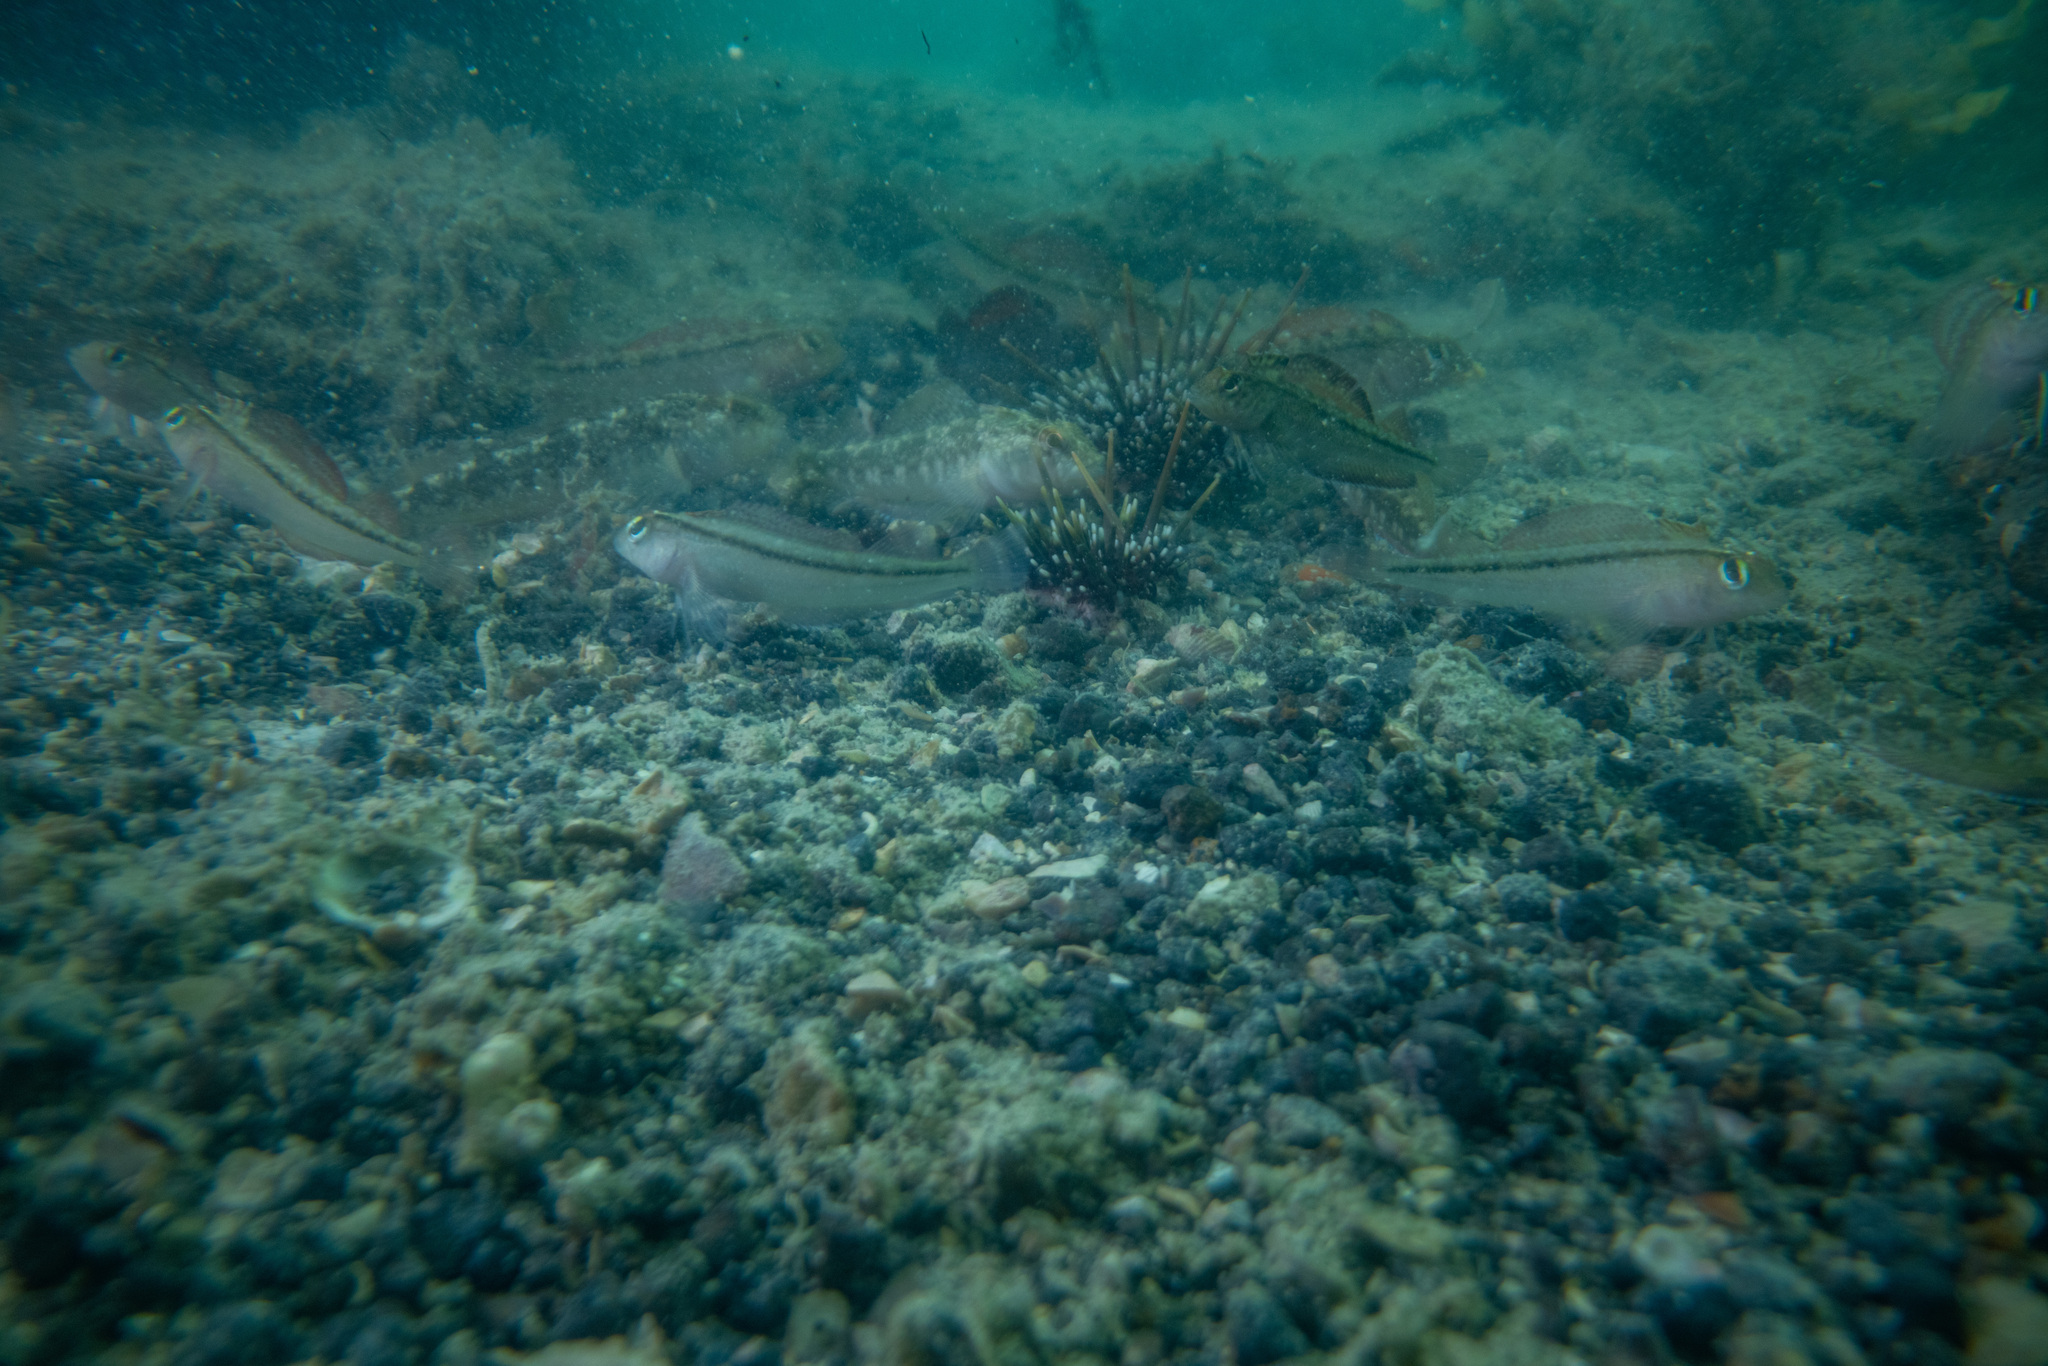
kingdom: Animalia
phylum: Chordata
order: Perciformes
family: Tripterygiidae
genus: Forsterygion
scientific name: Forsterygion lapillum
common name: Common triplefin
